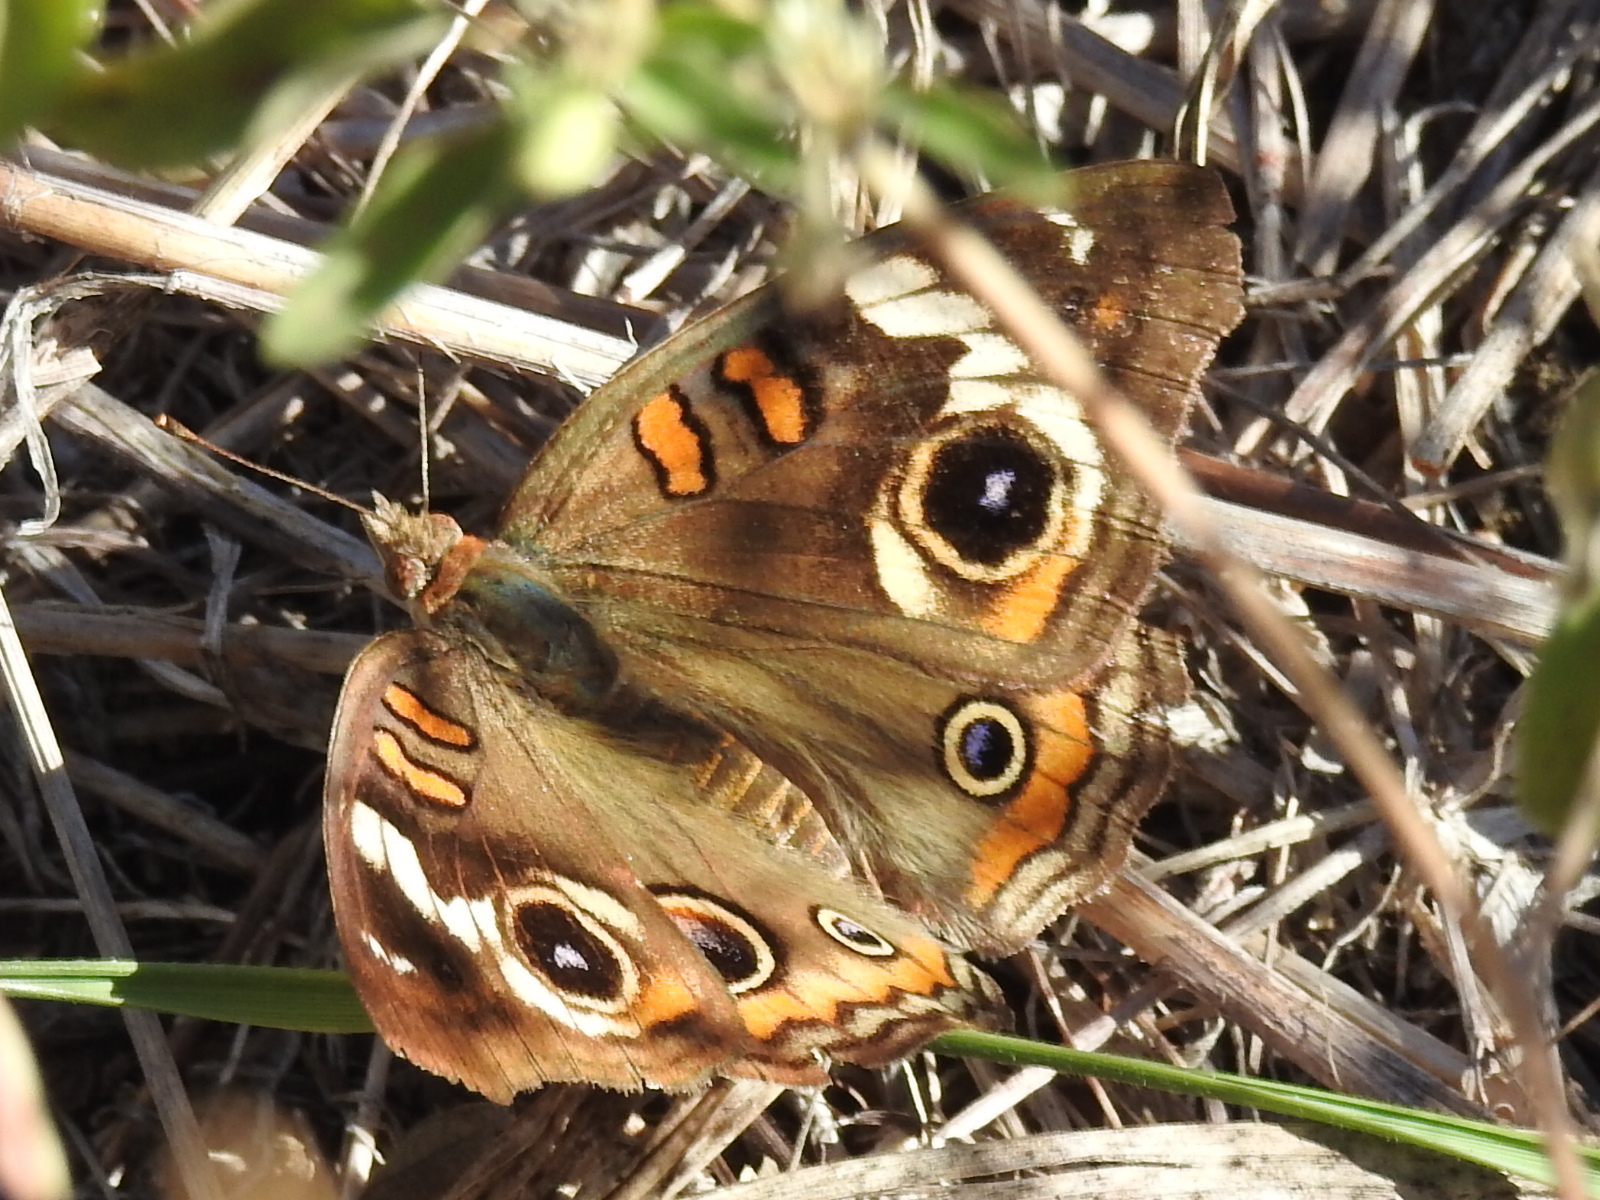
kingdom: Animalia
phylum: Arthropoda
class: Insecta
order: Lepidoptera
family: Nymphalidae
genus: Junonia
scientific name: Junonia coenia
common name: Common buckeye
